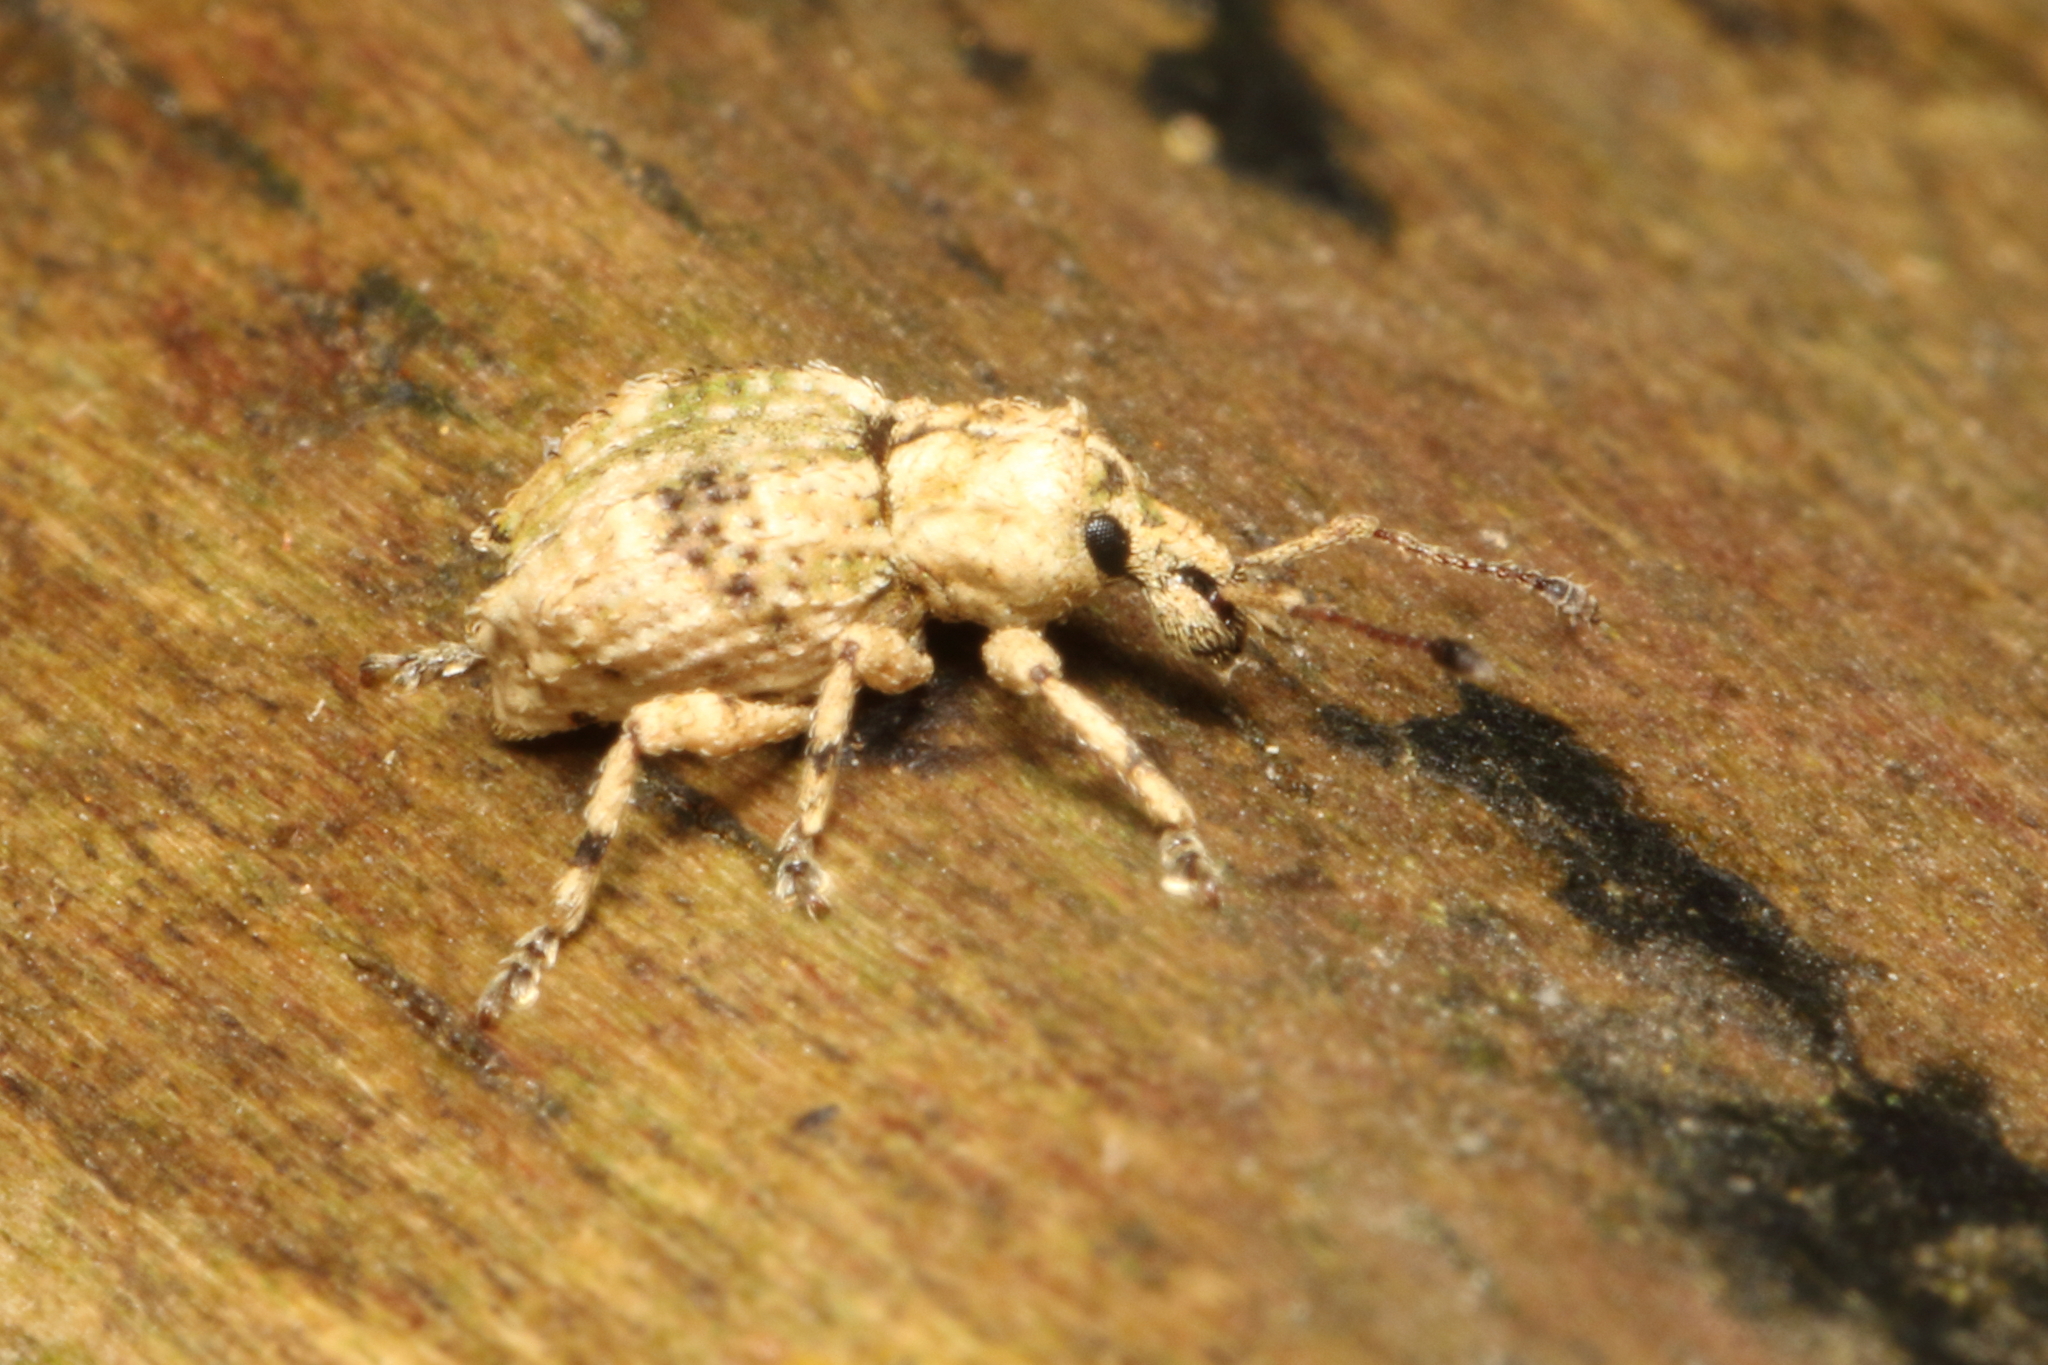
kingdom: Animalia
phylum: Arthropoda
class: Insecta
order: Coleoptera
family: Curculionidae
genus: Brachyolus
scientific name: Brachyolus punctatus
